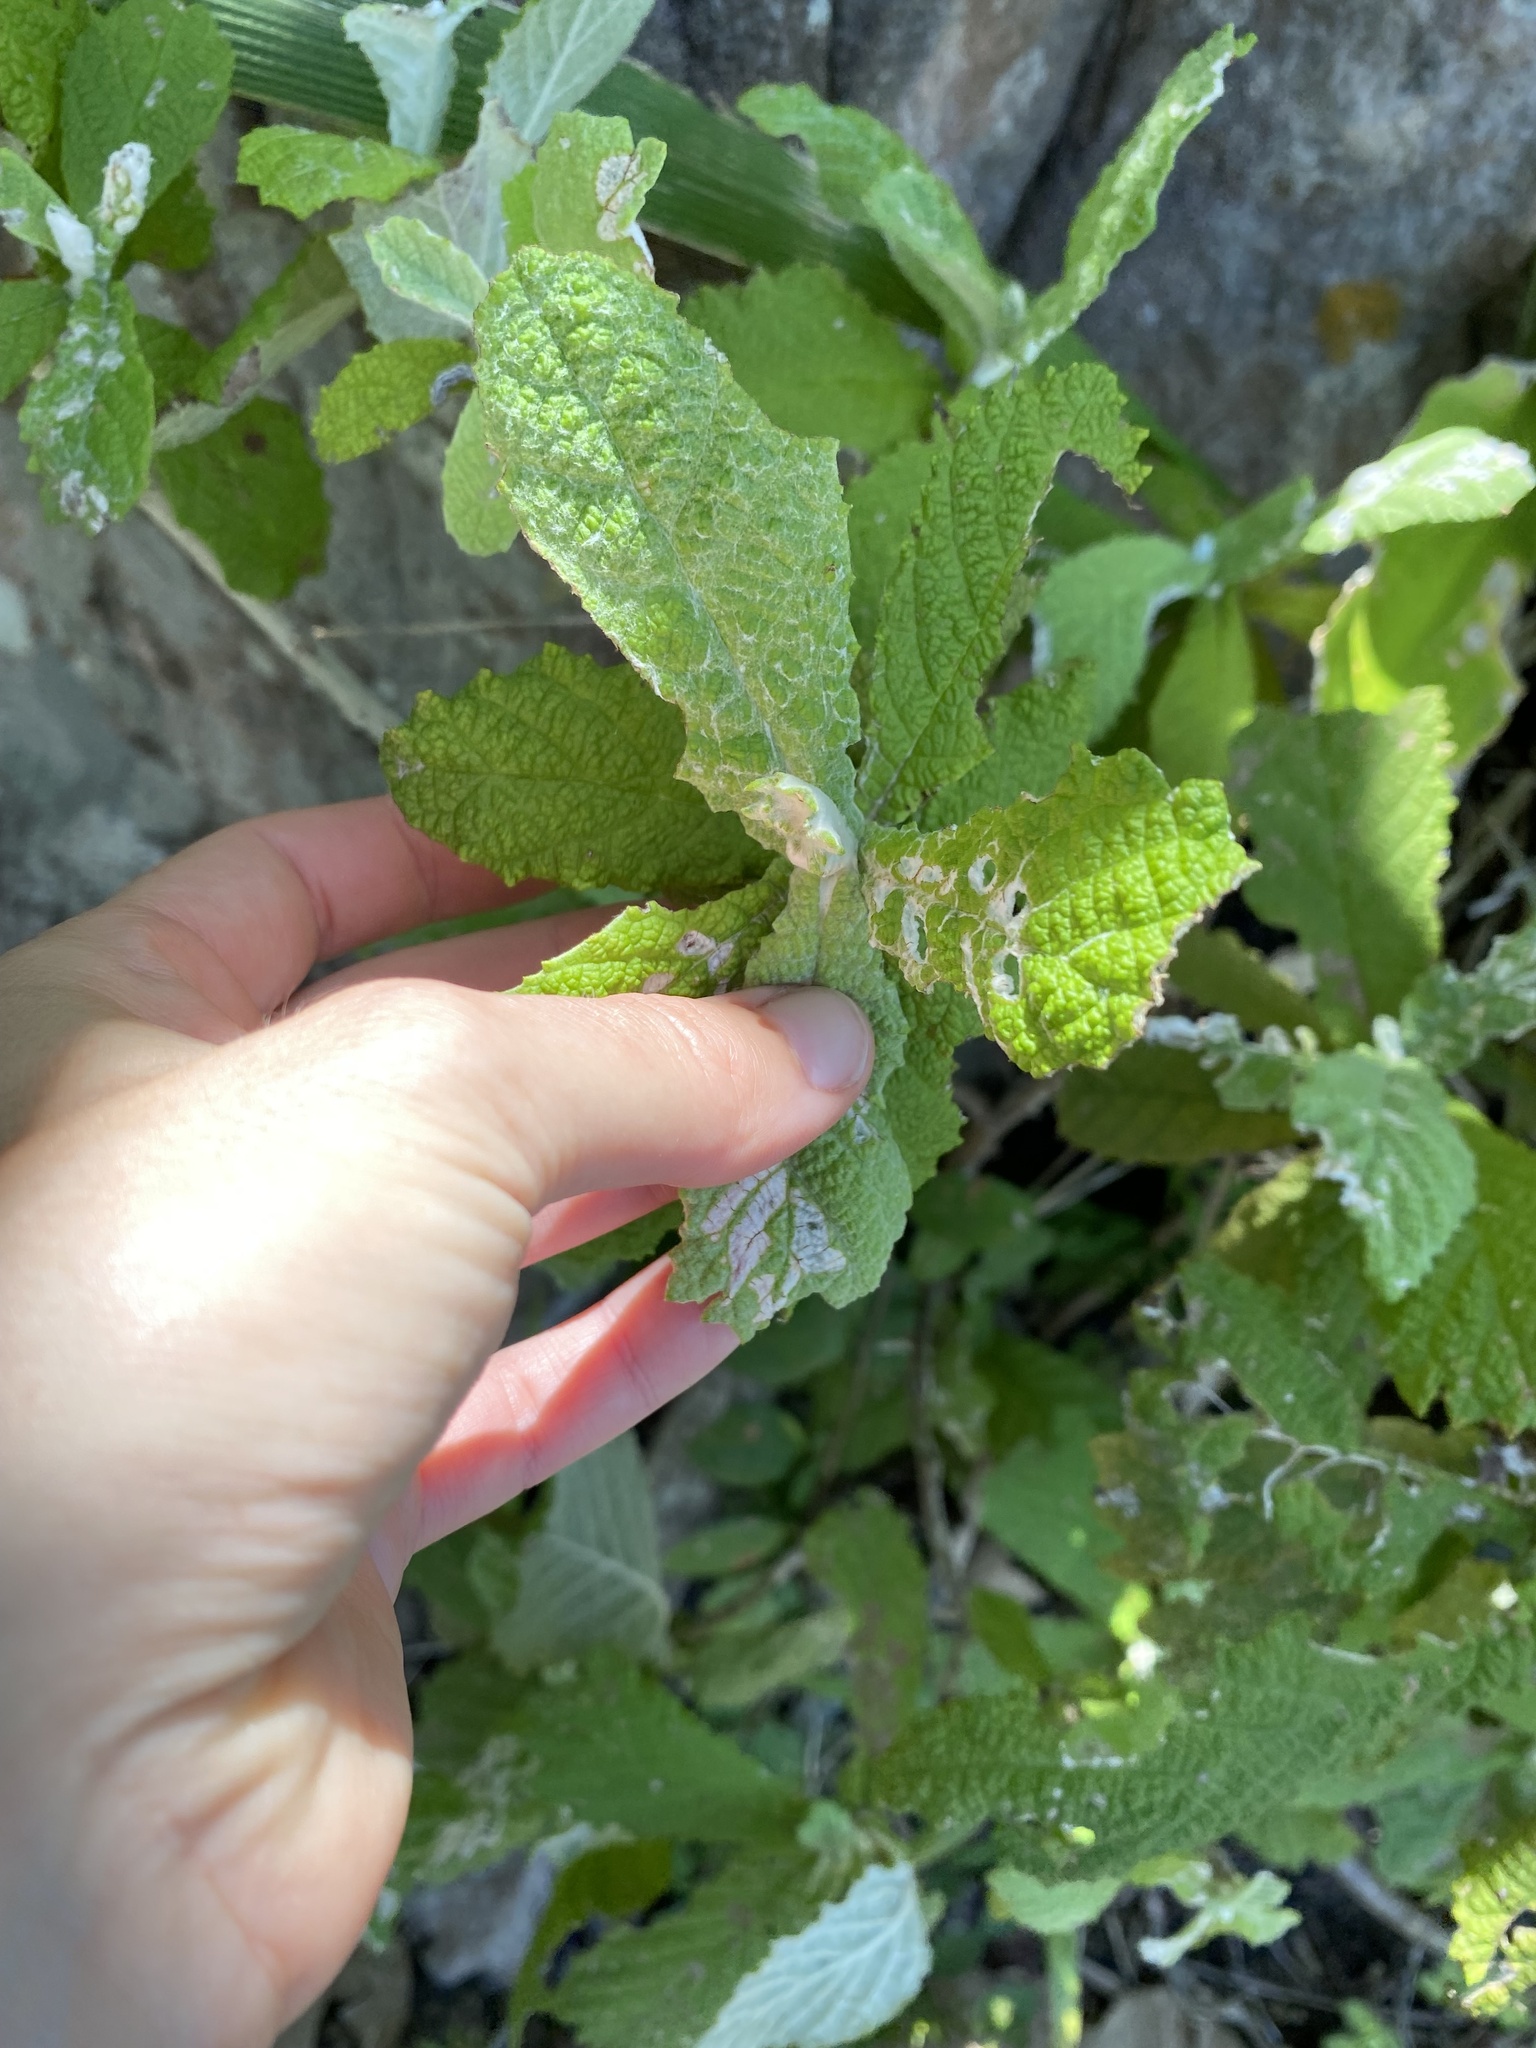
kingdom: Plantae
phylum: Tracheophyta
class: Magnoliopsida
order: Asterales
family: Asteraceae
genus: Tarchonanthus
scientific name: Tarchonanthus trilobus
